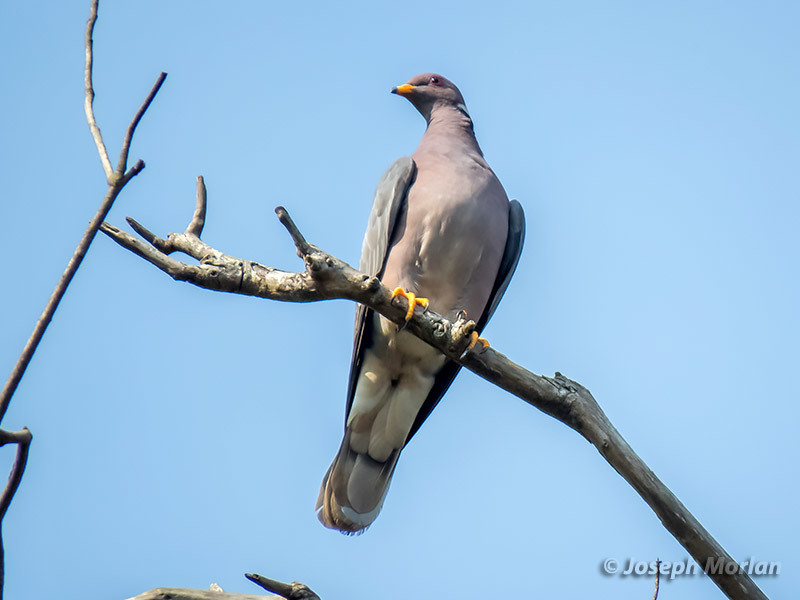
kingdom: Animalia
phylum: Chordata
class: Aves
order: Columbiformes
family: Columbidae
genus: Patagioenas
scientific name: Patagioenas fasciata
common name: Band-tailed pigeon
